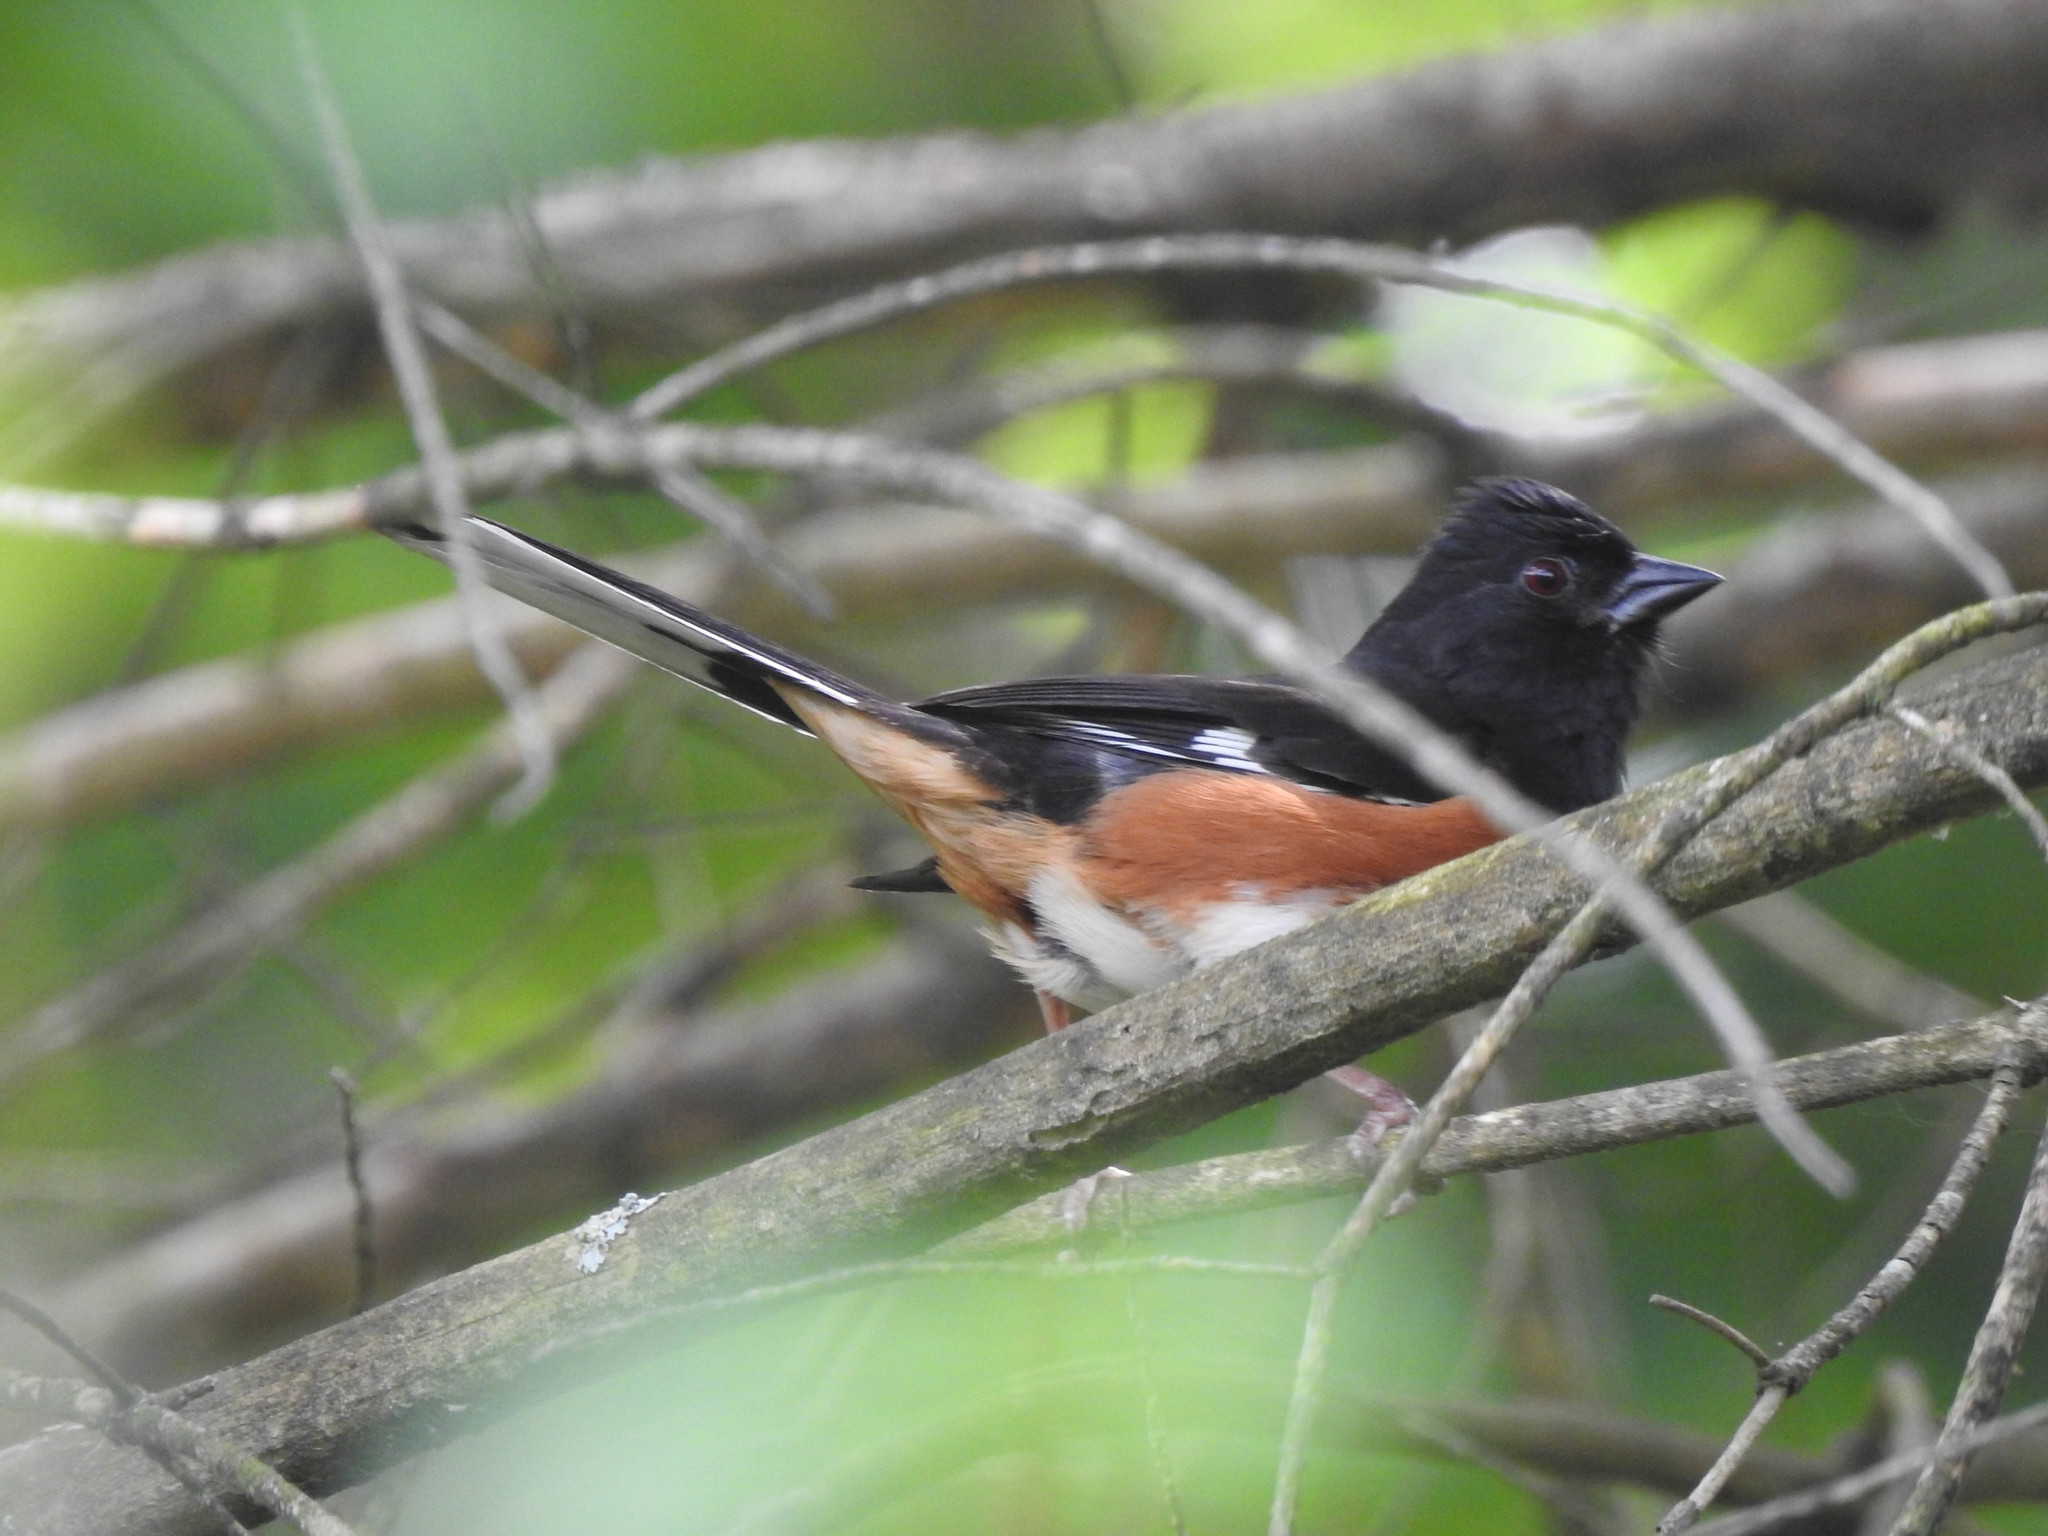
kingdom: Animalia
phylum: Chordata
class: Aves
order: Passeriformes
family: Passerellidae
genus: Pipilo
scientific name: Pipilo erythrophthalmus
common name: Eastern towhee
